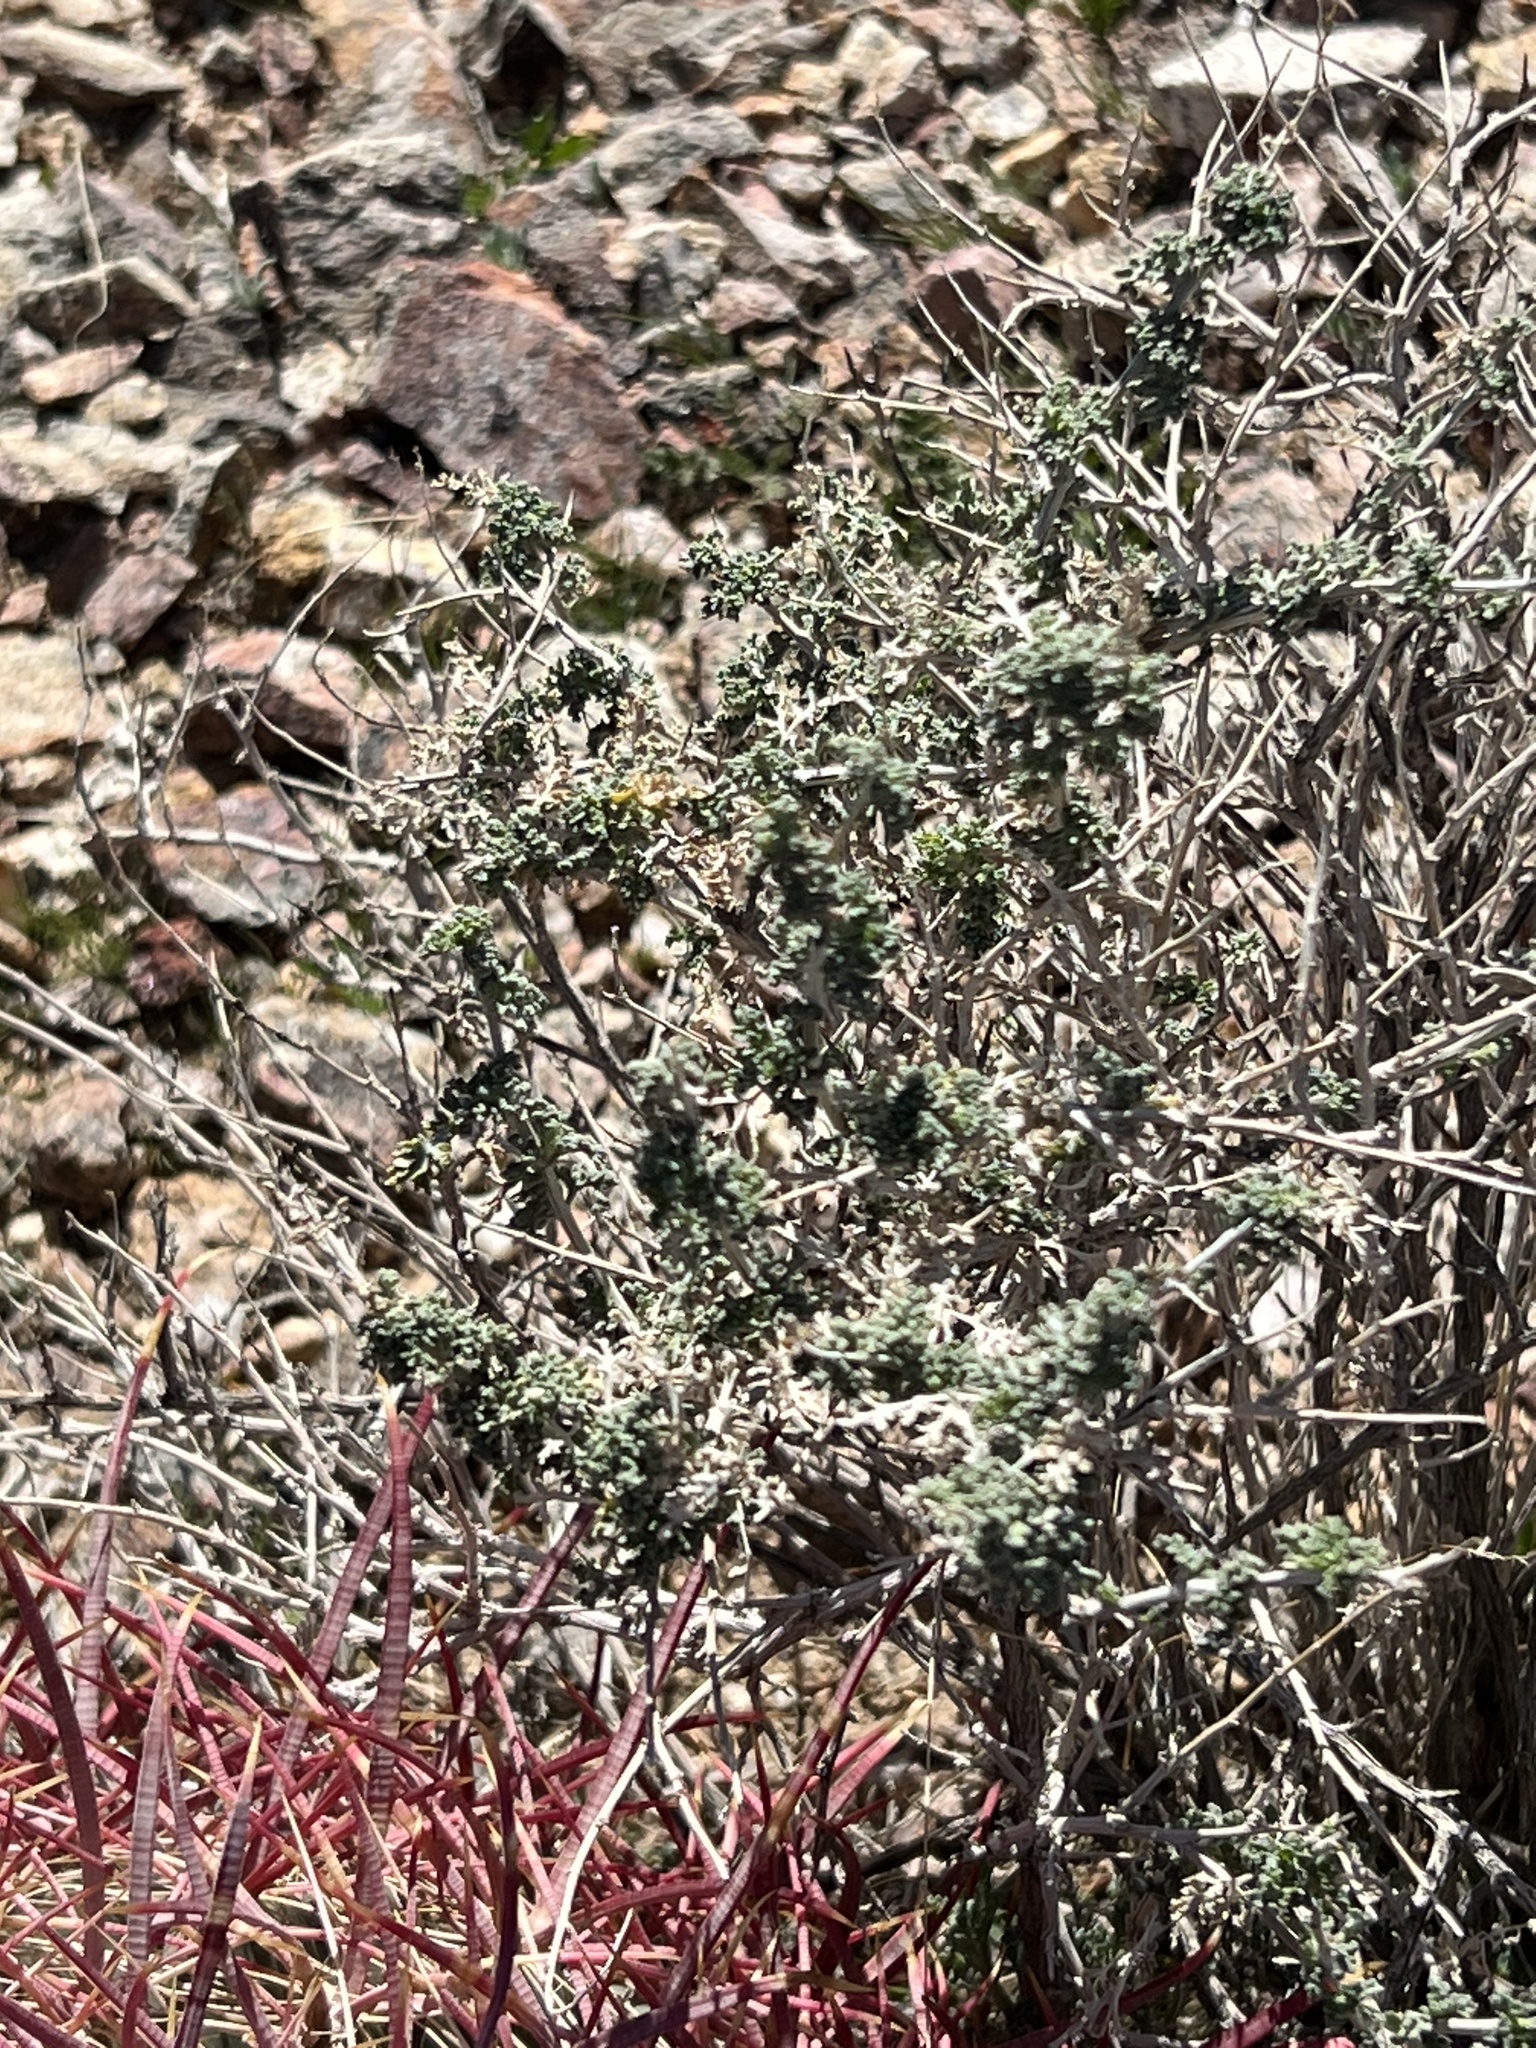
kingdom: Plantae
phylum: Tracheophyta
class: Magnoliopsida
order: Asterales
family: Asteraceae
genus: Ambrosia
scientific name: Ambrosia dumosa
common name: Bur-sage
